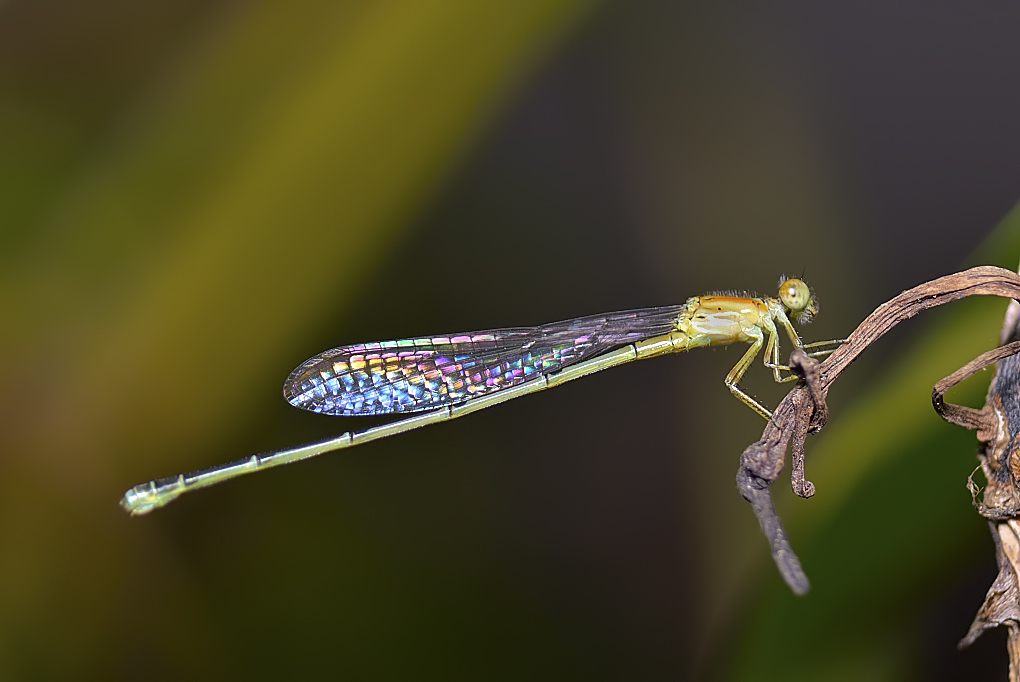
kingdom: Animalia
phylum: Arthropoda
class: Insecta
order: Odonata
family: Coenagrionidae
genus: Pseudagrion
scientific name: Pseudagrion microcephalum
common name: Blue riverdamsel
